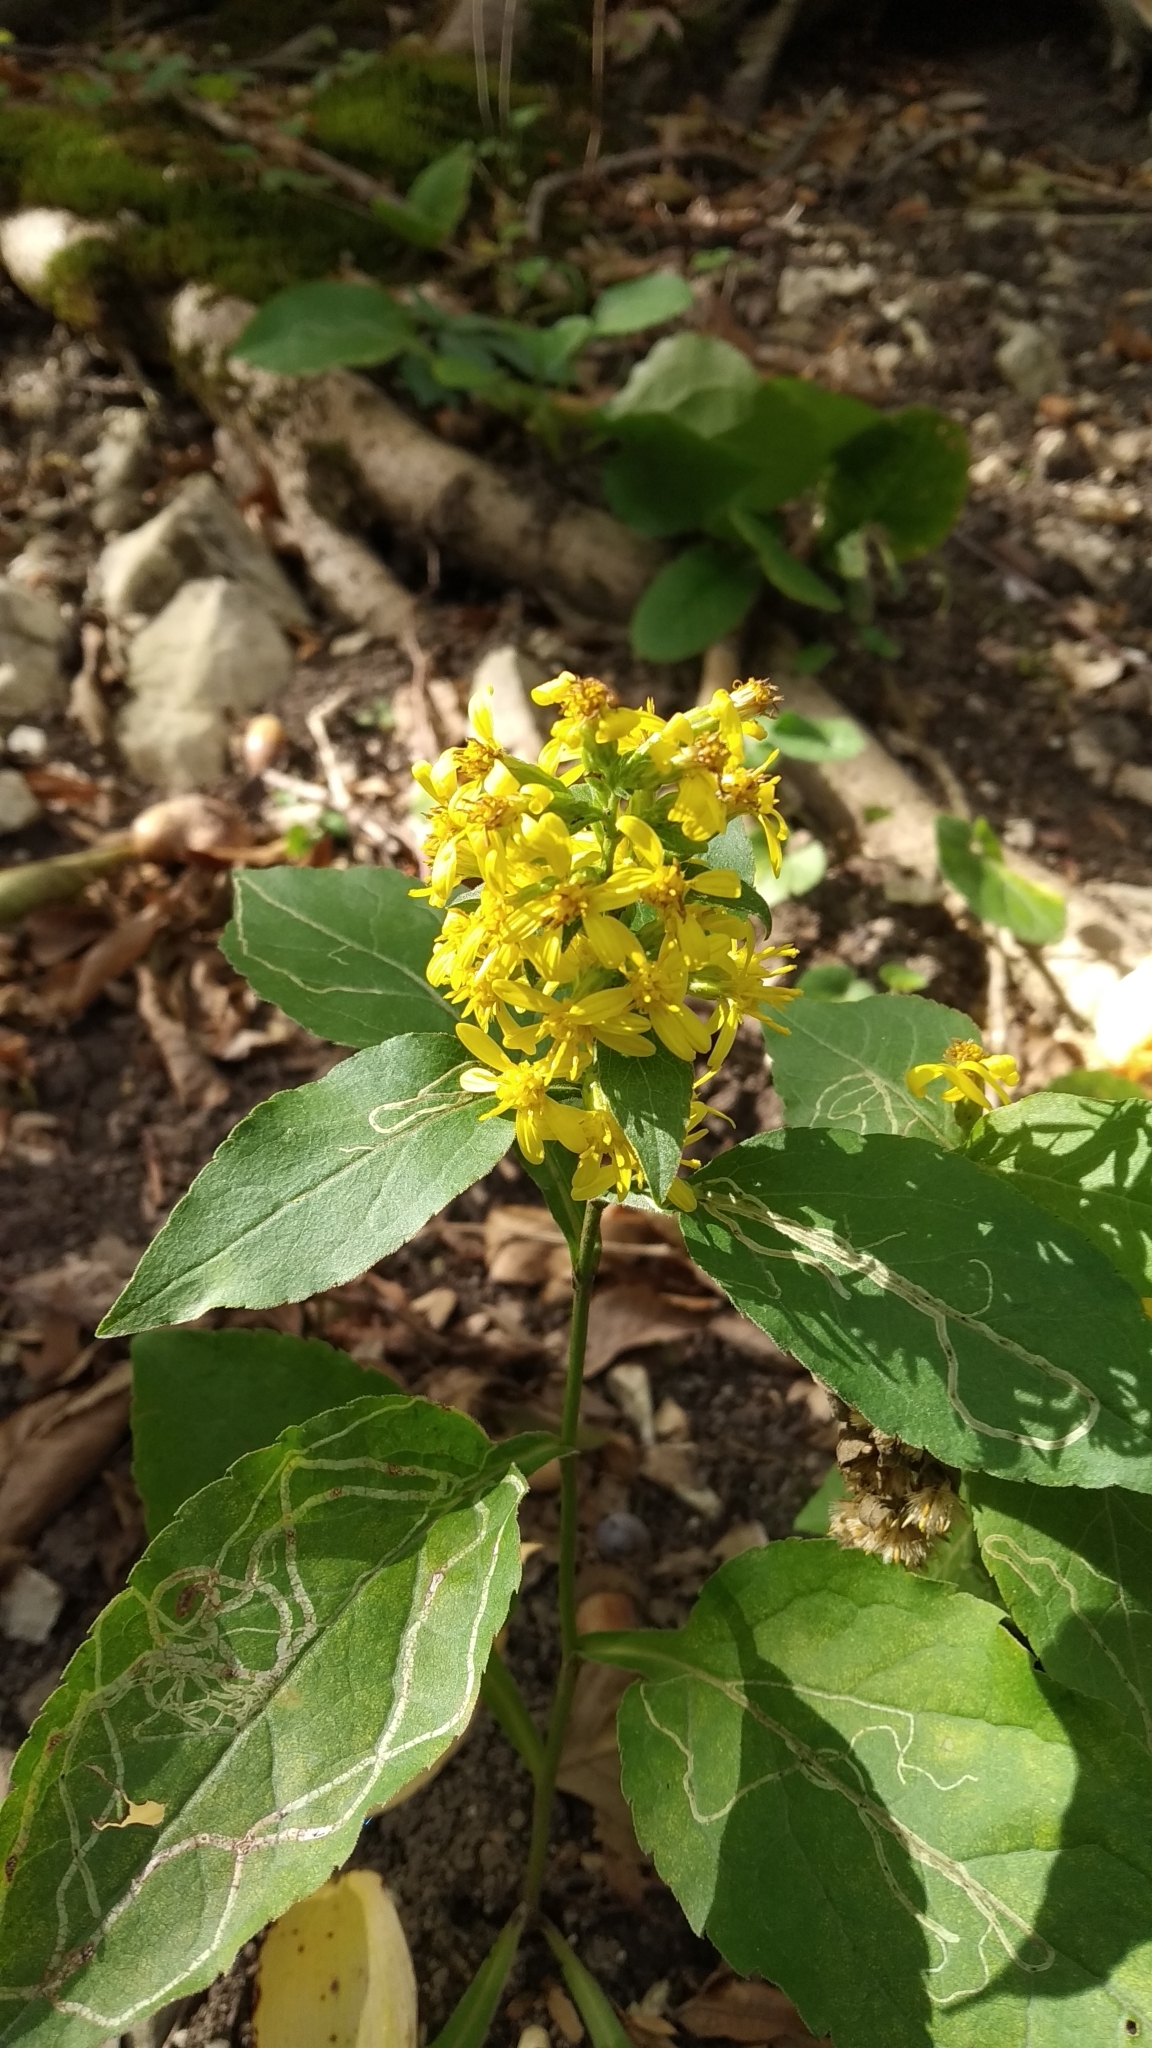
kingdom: Plantae
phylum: Tracheophyta
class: Magnoliopsida
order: Asterales
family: Asteraceae
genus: Solidago
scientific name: Solidago virgaurea
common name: Goldenrod
